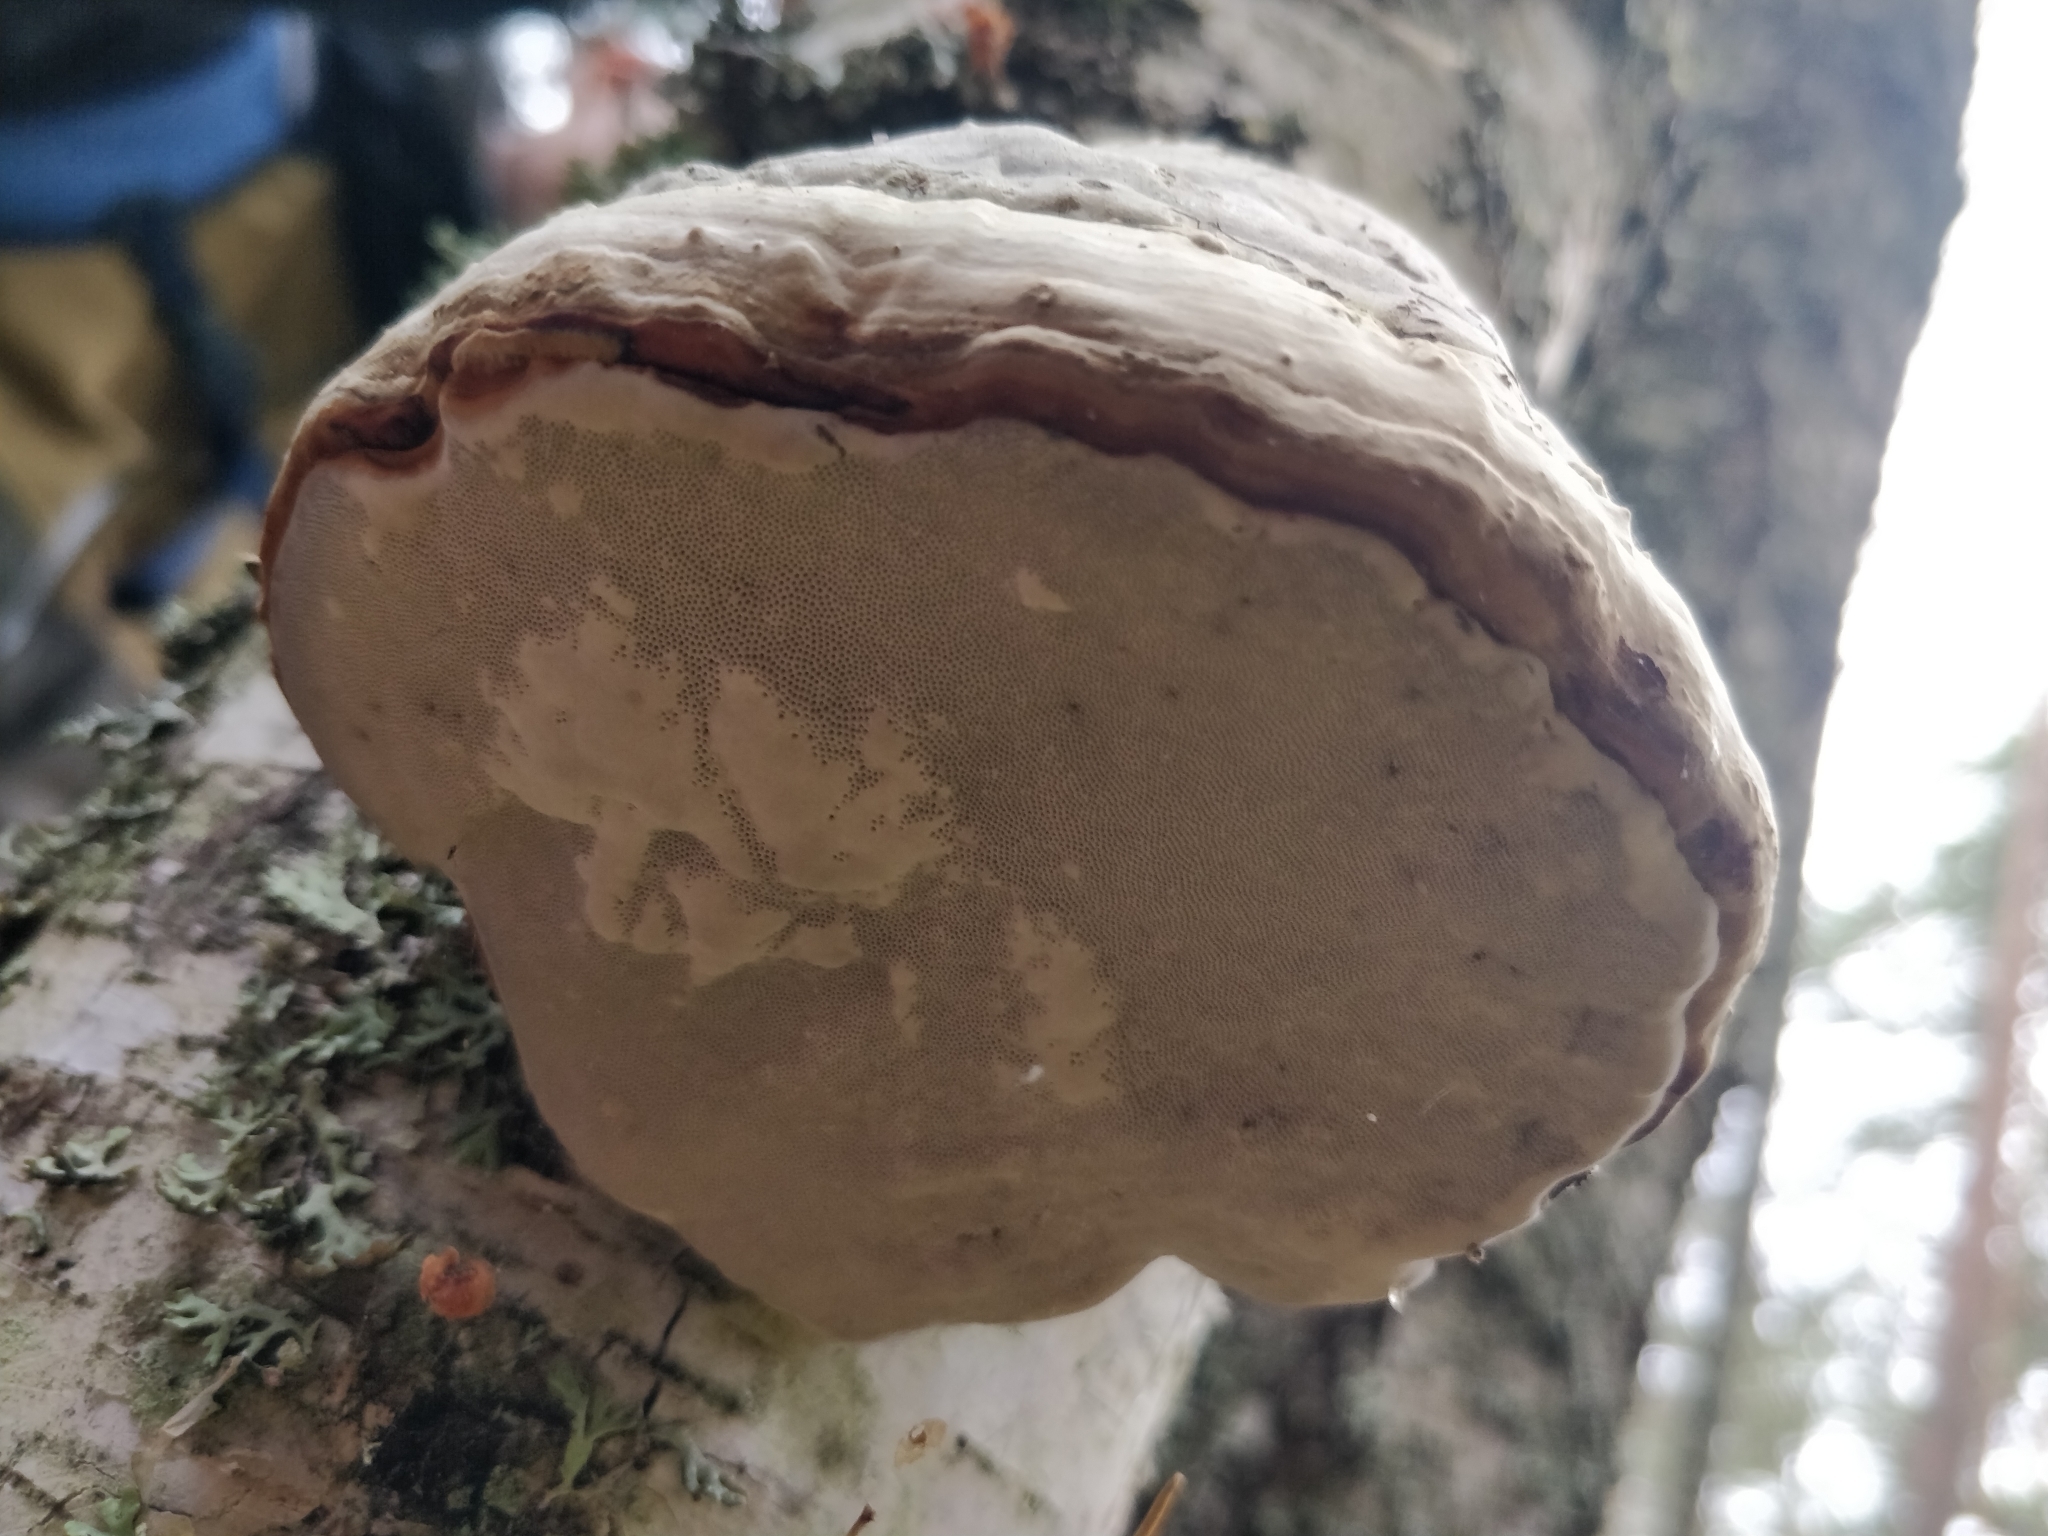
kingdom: Fungi
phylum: Basidiomycota
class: Agaricomycetes
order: Polyporales
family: Polyporaceae
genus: Fomes
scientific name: Fomes fomentarius
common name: Hoof fungus
